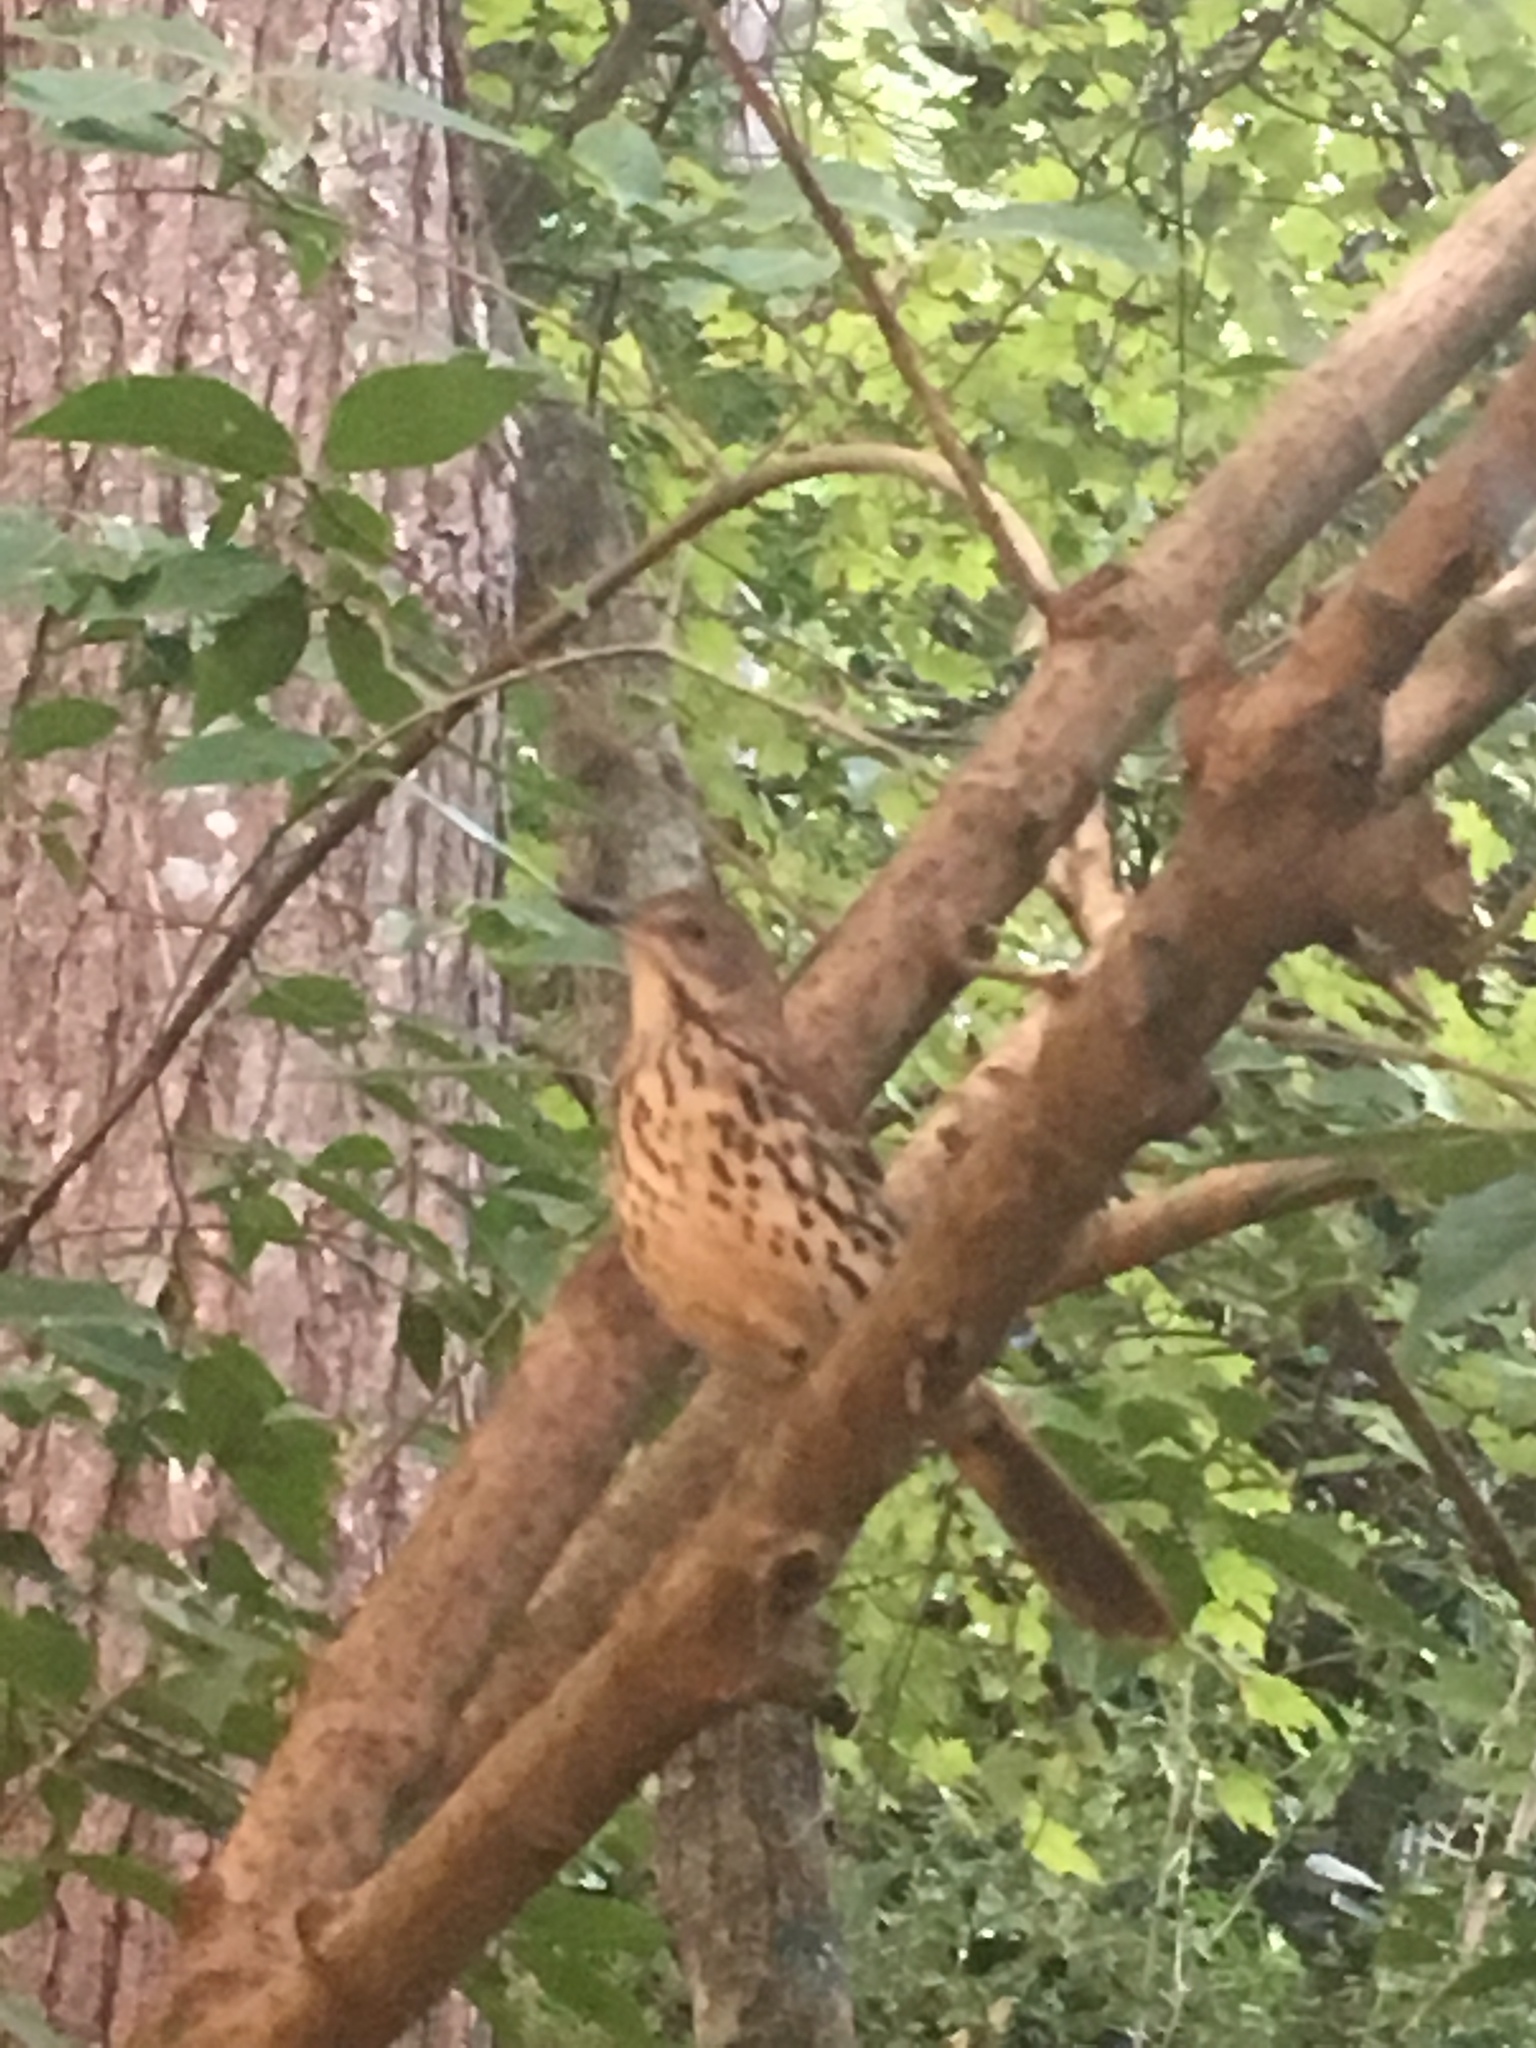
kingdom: Animalia
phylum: Chordata
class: Aves
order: Passeriformes
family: Mimidae
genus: Toxostoma
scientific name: Toxostoma rufum
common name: Brown thrasher
